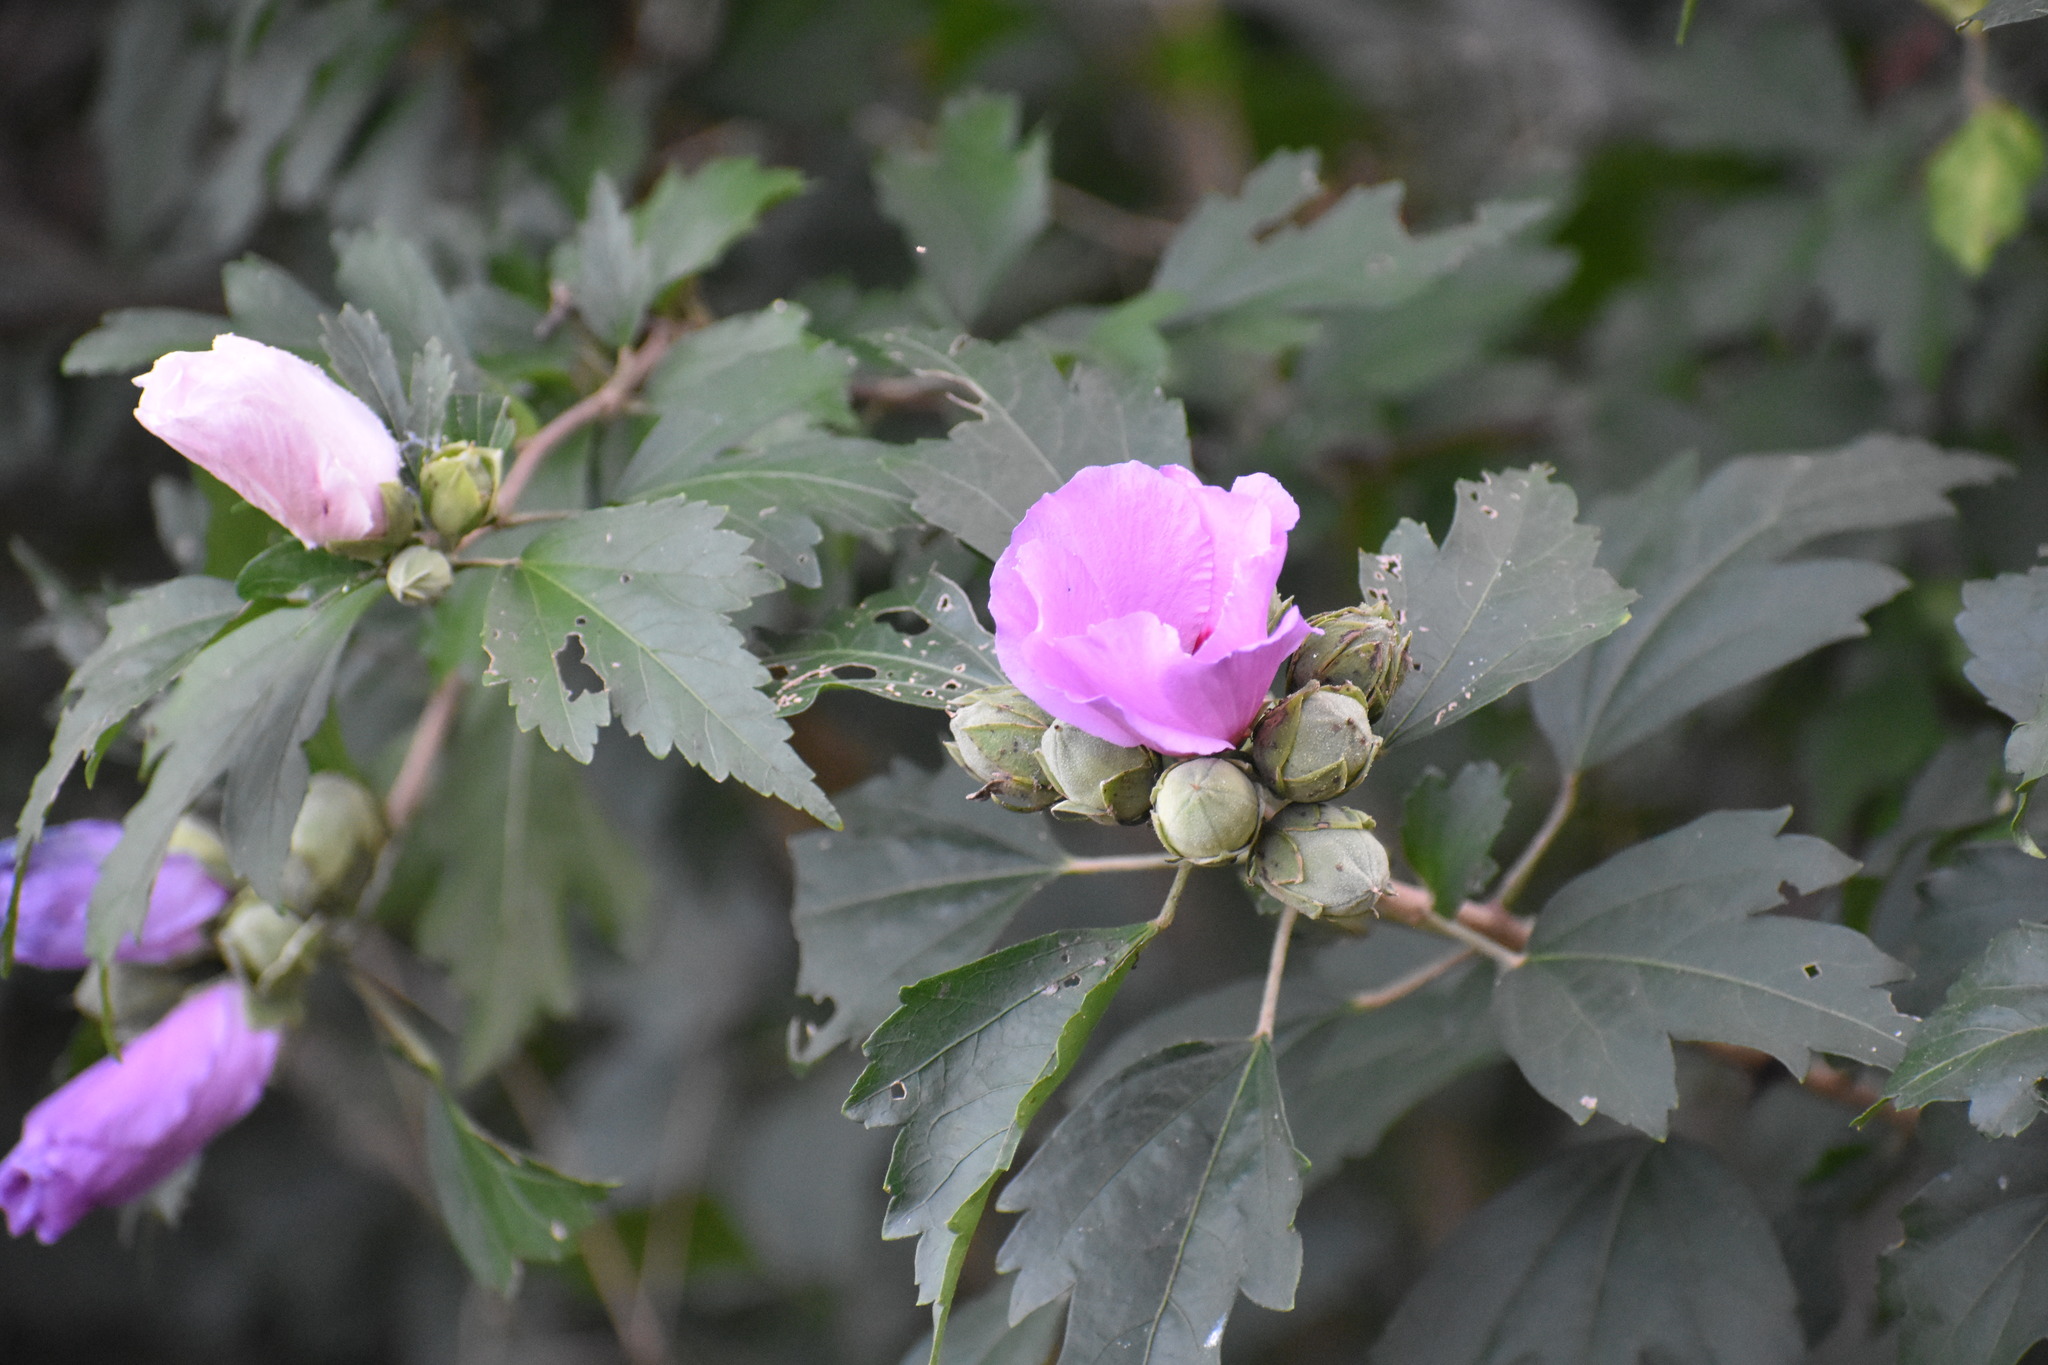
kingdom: Plantae
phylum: Tracheophyta
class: Magnoliopsida
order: Malvales
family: Malvaceae
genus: Hibiscus
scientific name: Hibiscus syriacus
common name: Syrian ketmia
